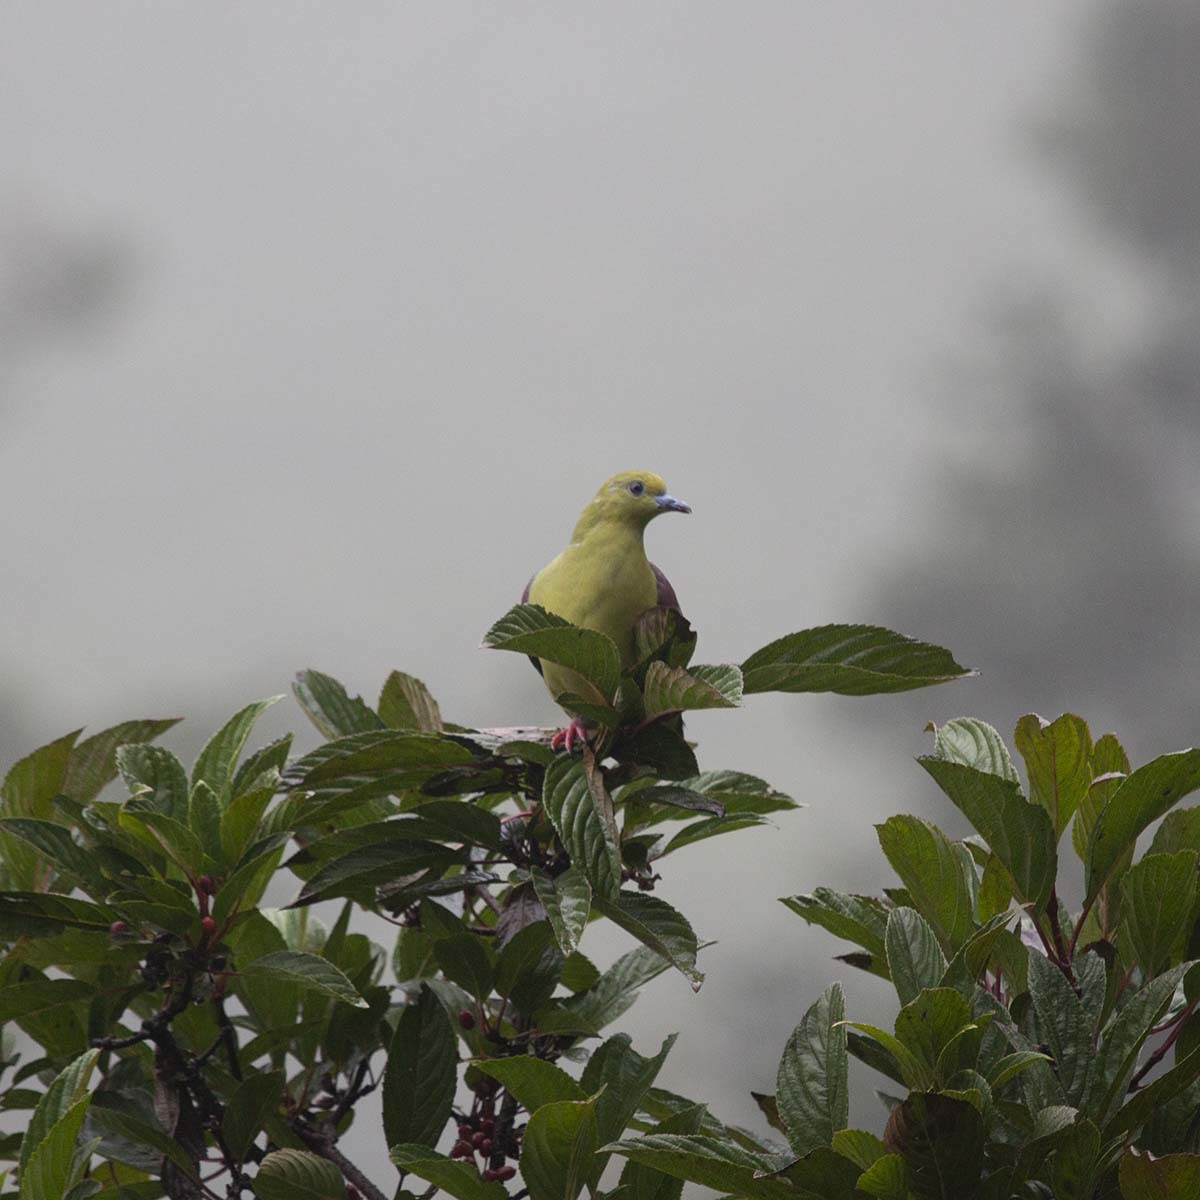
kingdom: Animalia
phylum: Chordata
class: Aves
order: Columbiformes
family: Columbidae
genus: Treron
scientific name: Treron sphenurus
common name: Wedge-tailed green pigeon
